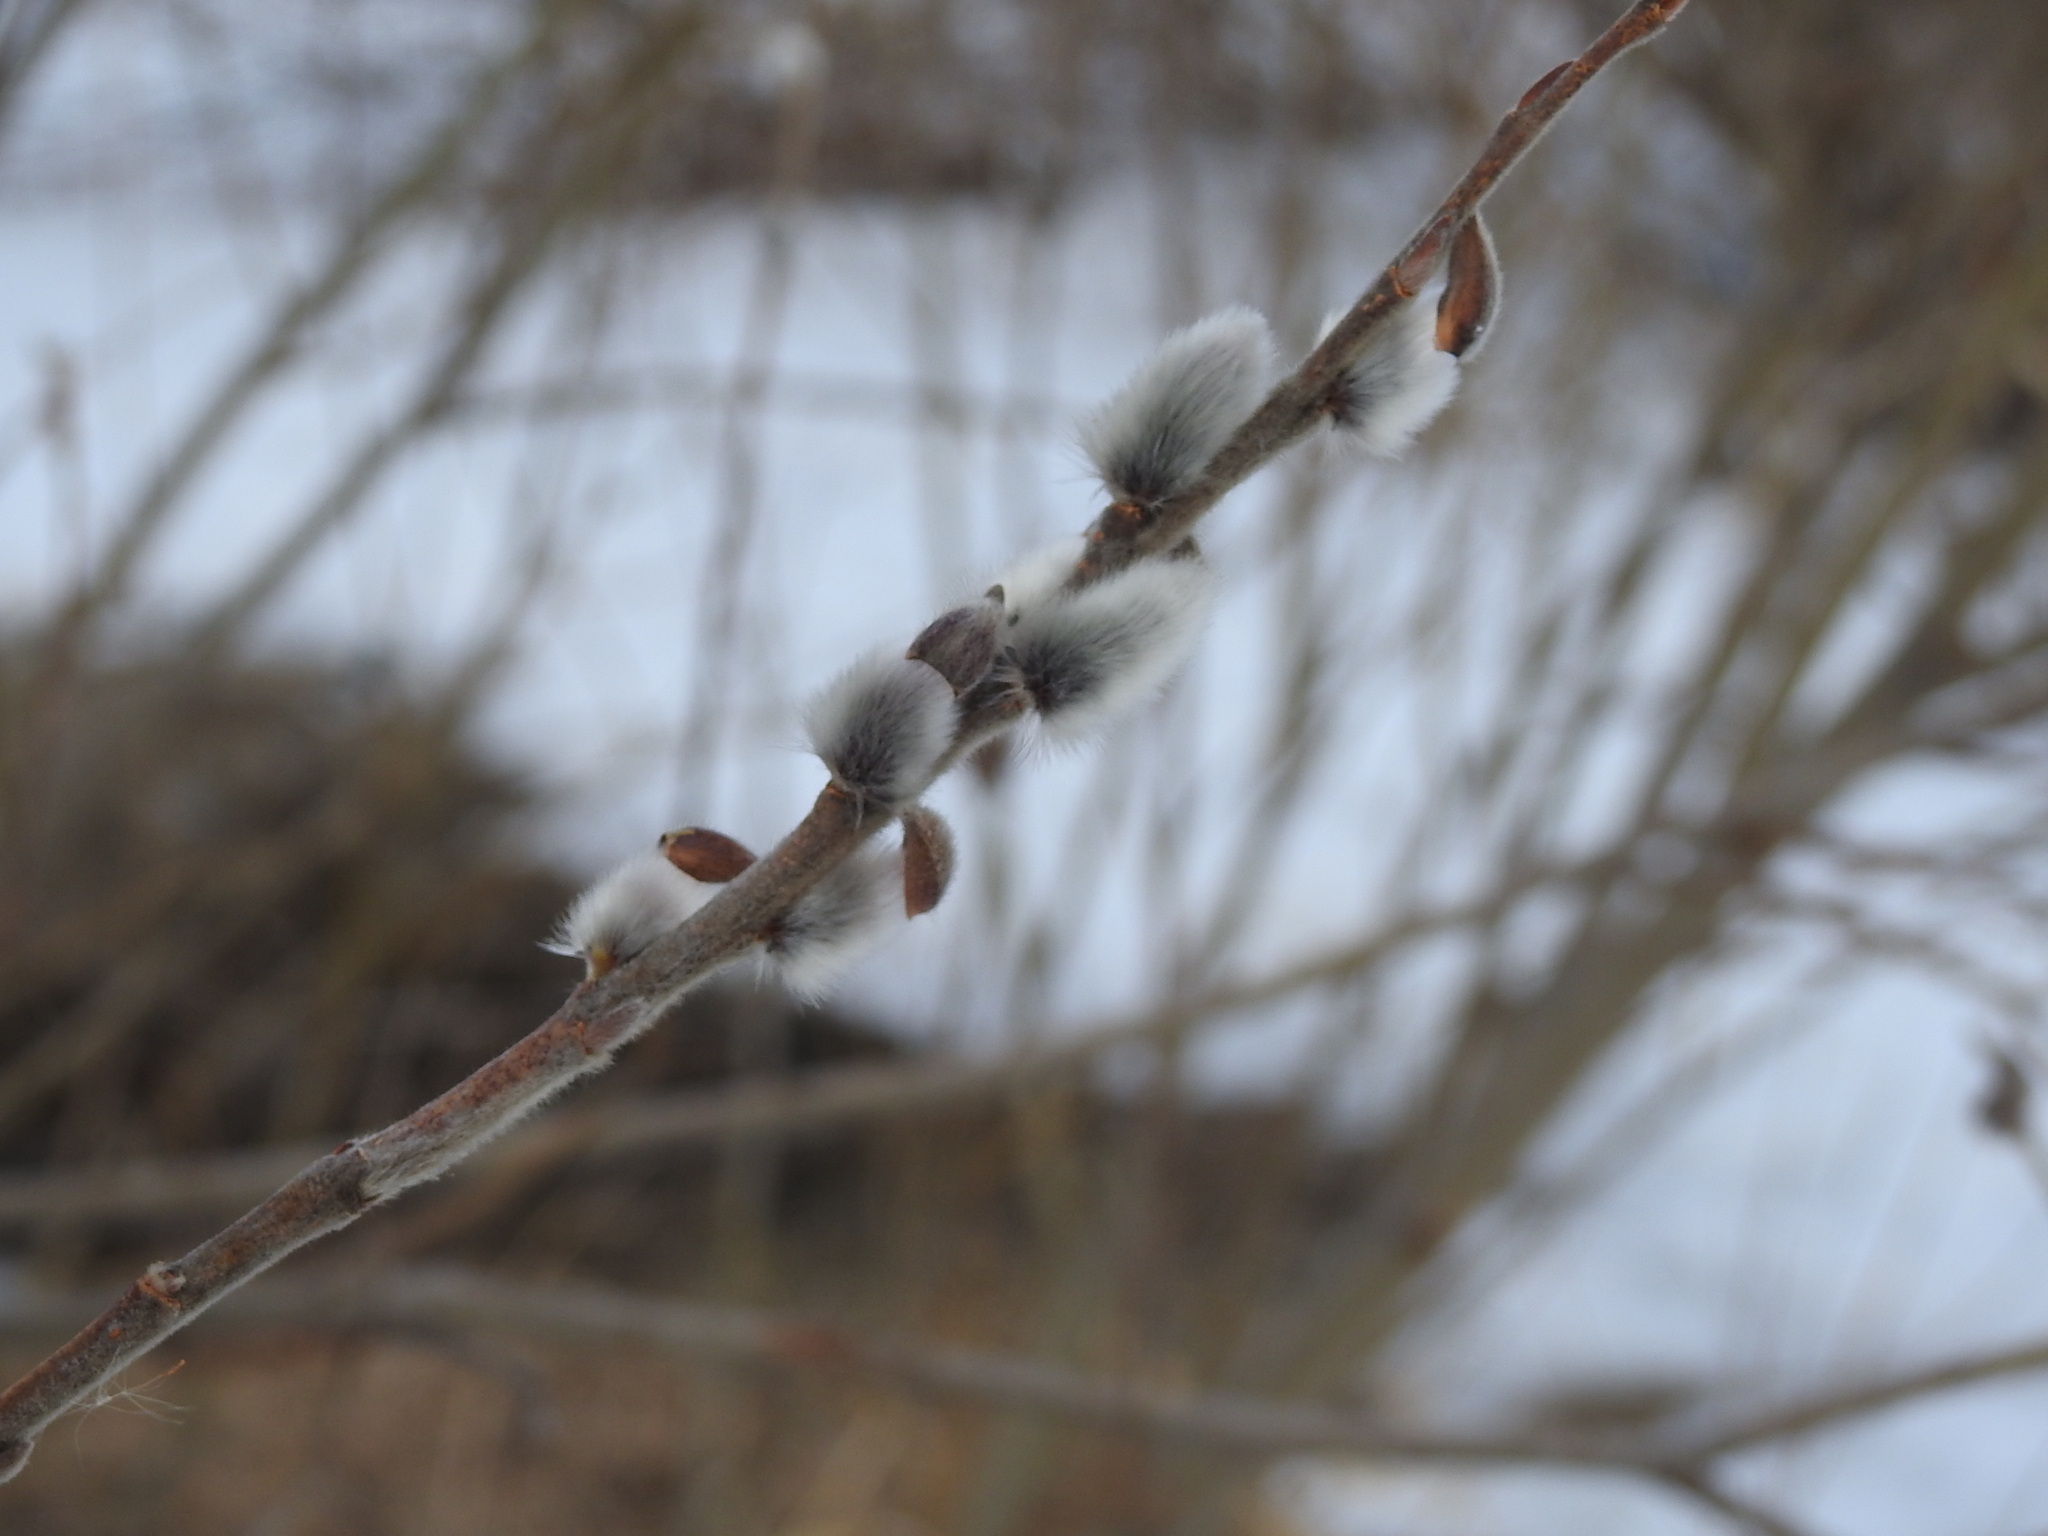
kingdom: Plantae
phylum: Tracheophyta
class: Magnoliopsida
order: Malpighiales
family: Salicaceae
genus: Salix
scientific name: Salix
